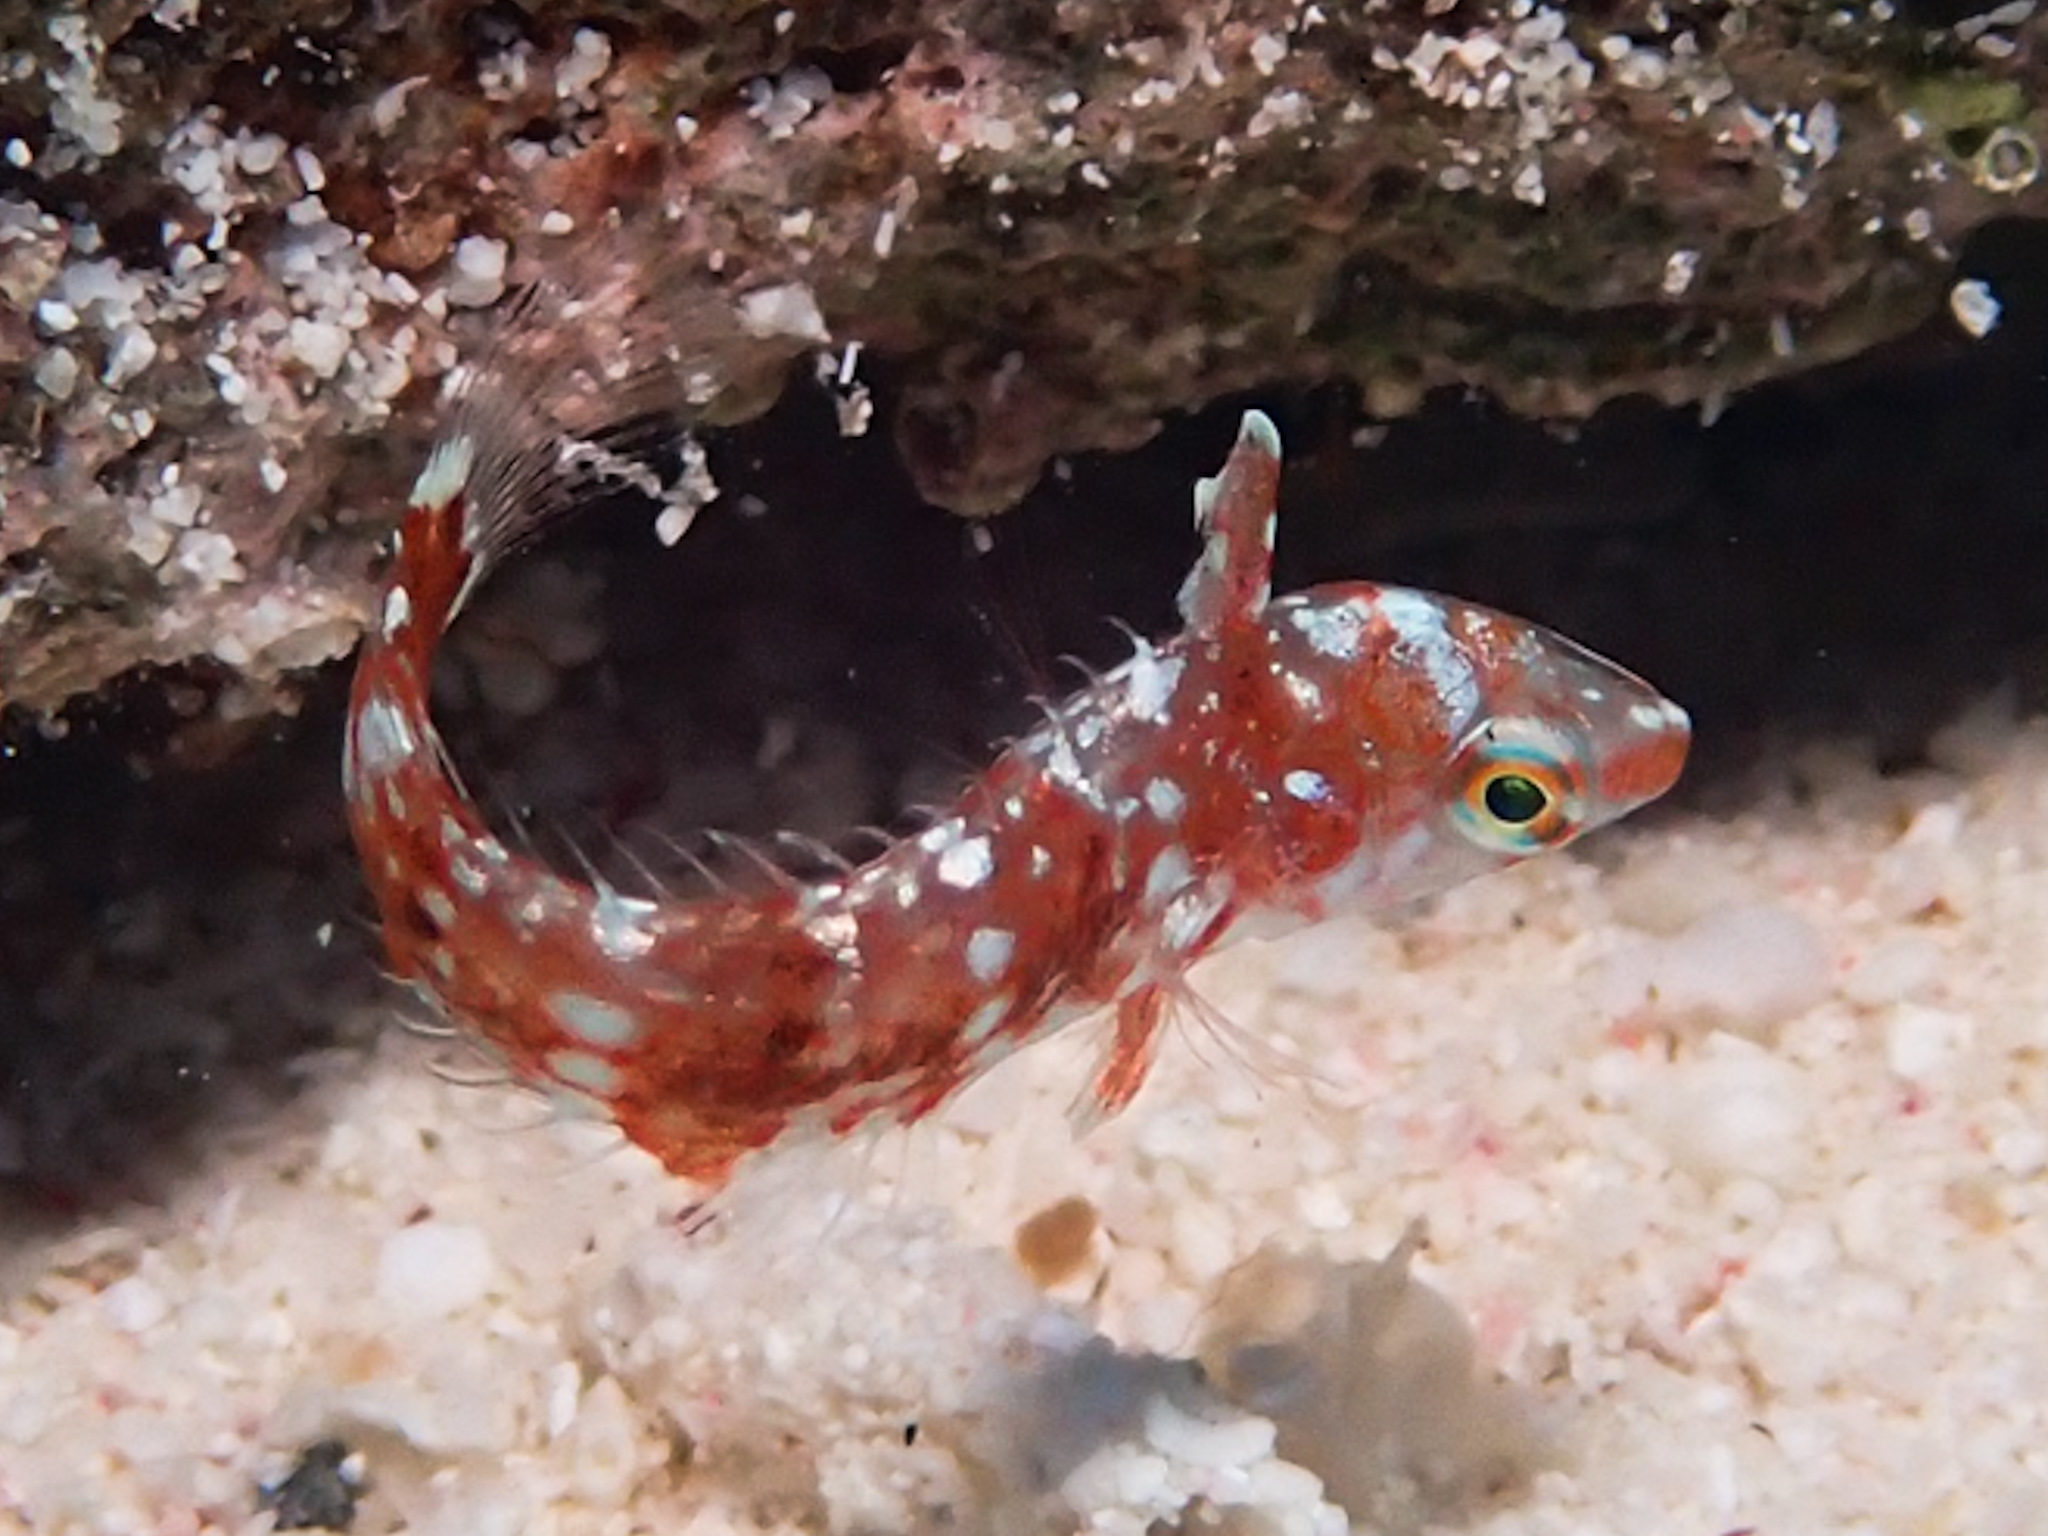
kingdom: Animalia
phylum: Chordata
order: Perciformes
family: Labridae
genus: Xyrichtys
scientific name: Xyrichtys splendens
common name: Green razorfish
